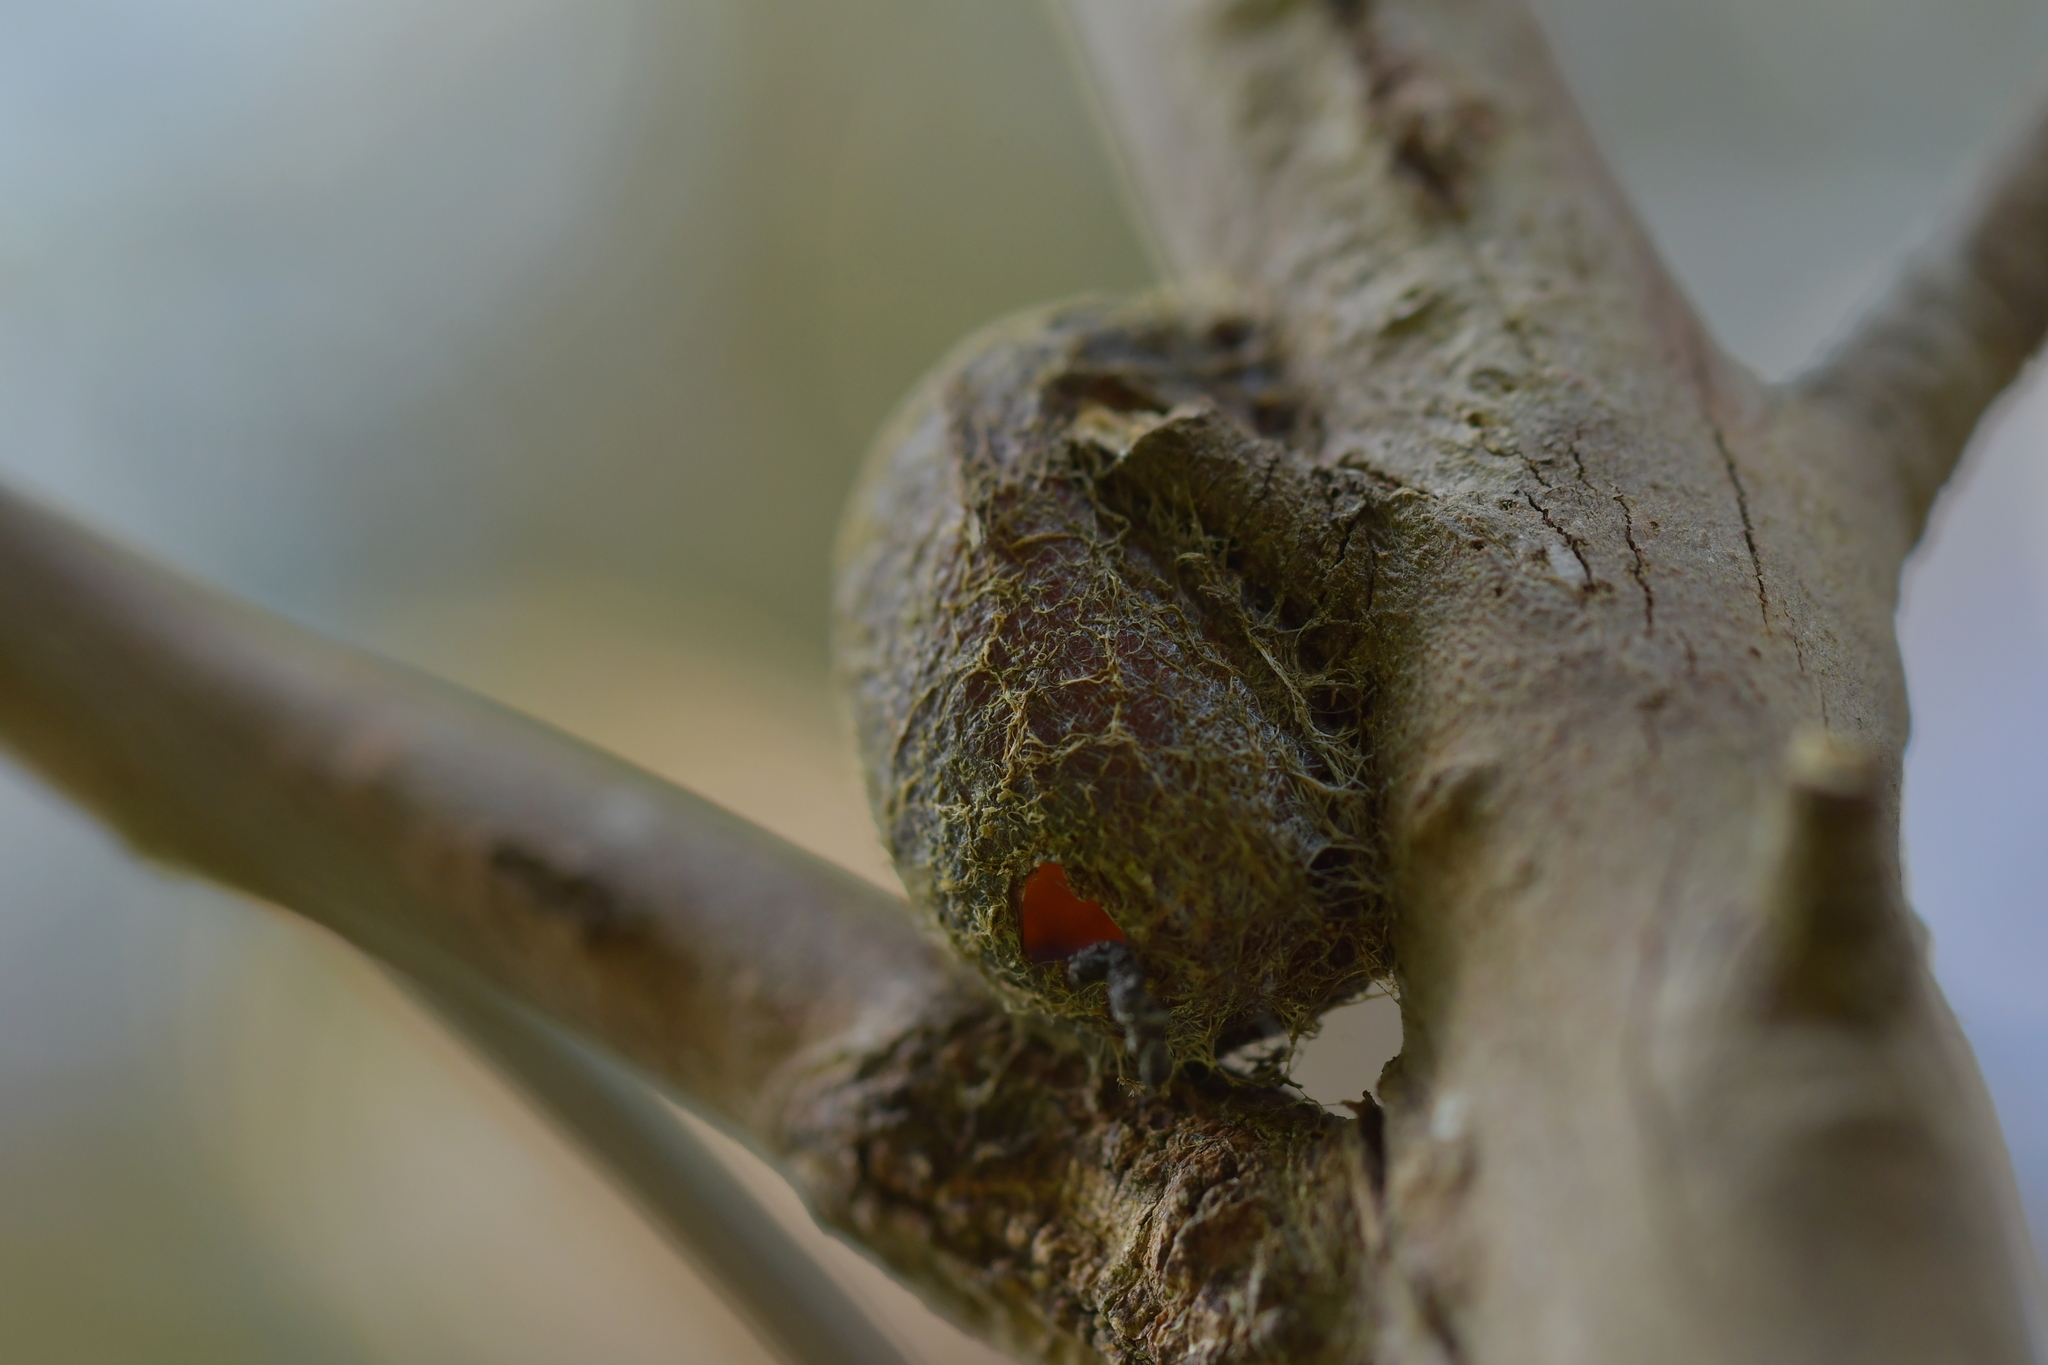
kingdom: Animalia
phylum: Arthropoda
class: Insecta
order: Lepidoptera
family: Saturniidae
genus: Opodiphthera
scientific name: Opodiphthera
